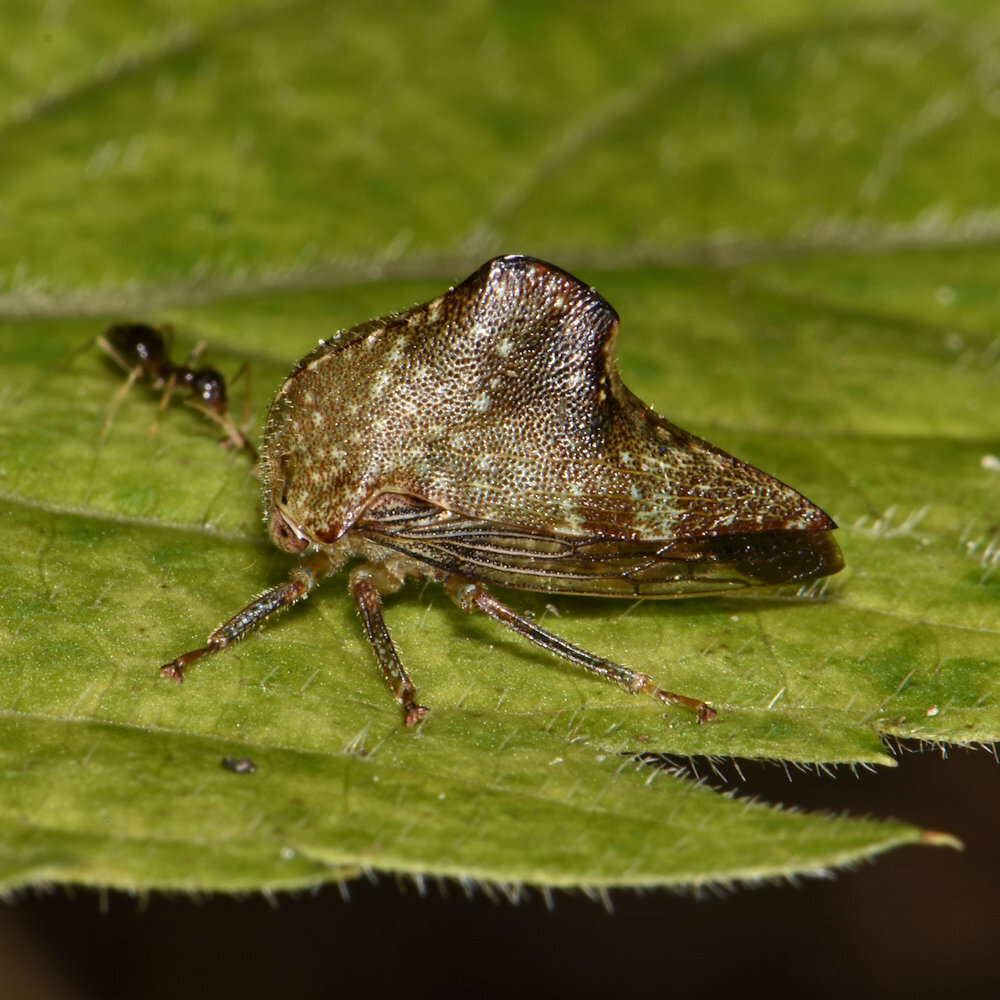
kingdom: Animalia
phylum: Arthropoda
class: Insecta
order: Hemiptera
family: Membracidae
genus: Telamona
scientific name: Telamona monticola
